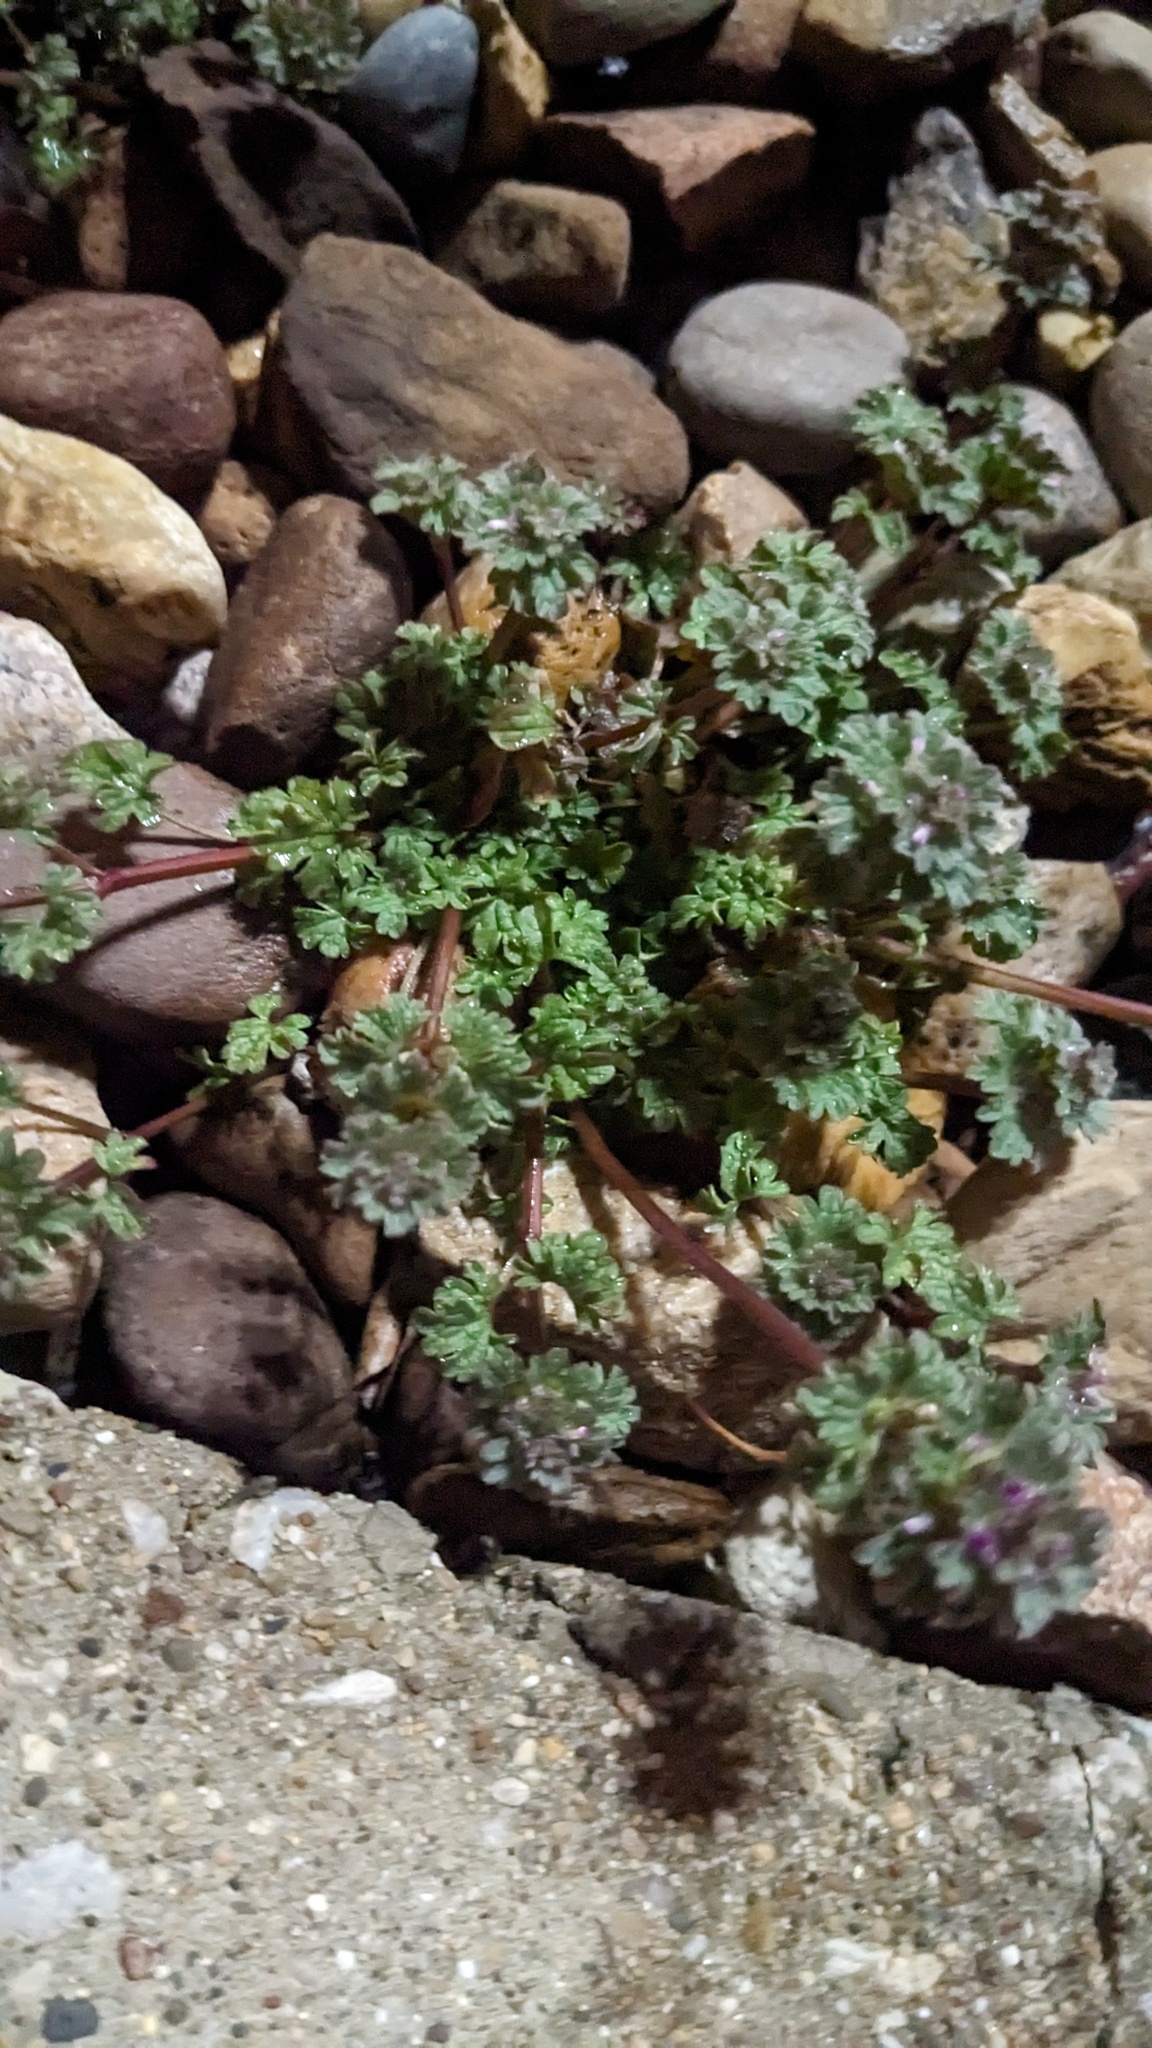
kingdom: Plantae
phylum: Tracheophyta
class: Magnoliopsida
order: Lamiales
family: Lamiaceae
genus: Lamium
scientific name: Lamium amplexicaule
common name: Henbit dead-nettle
